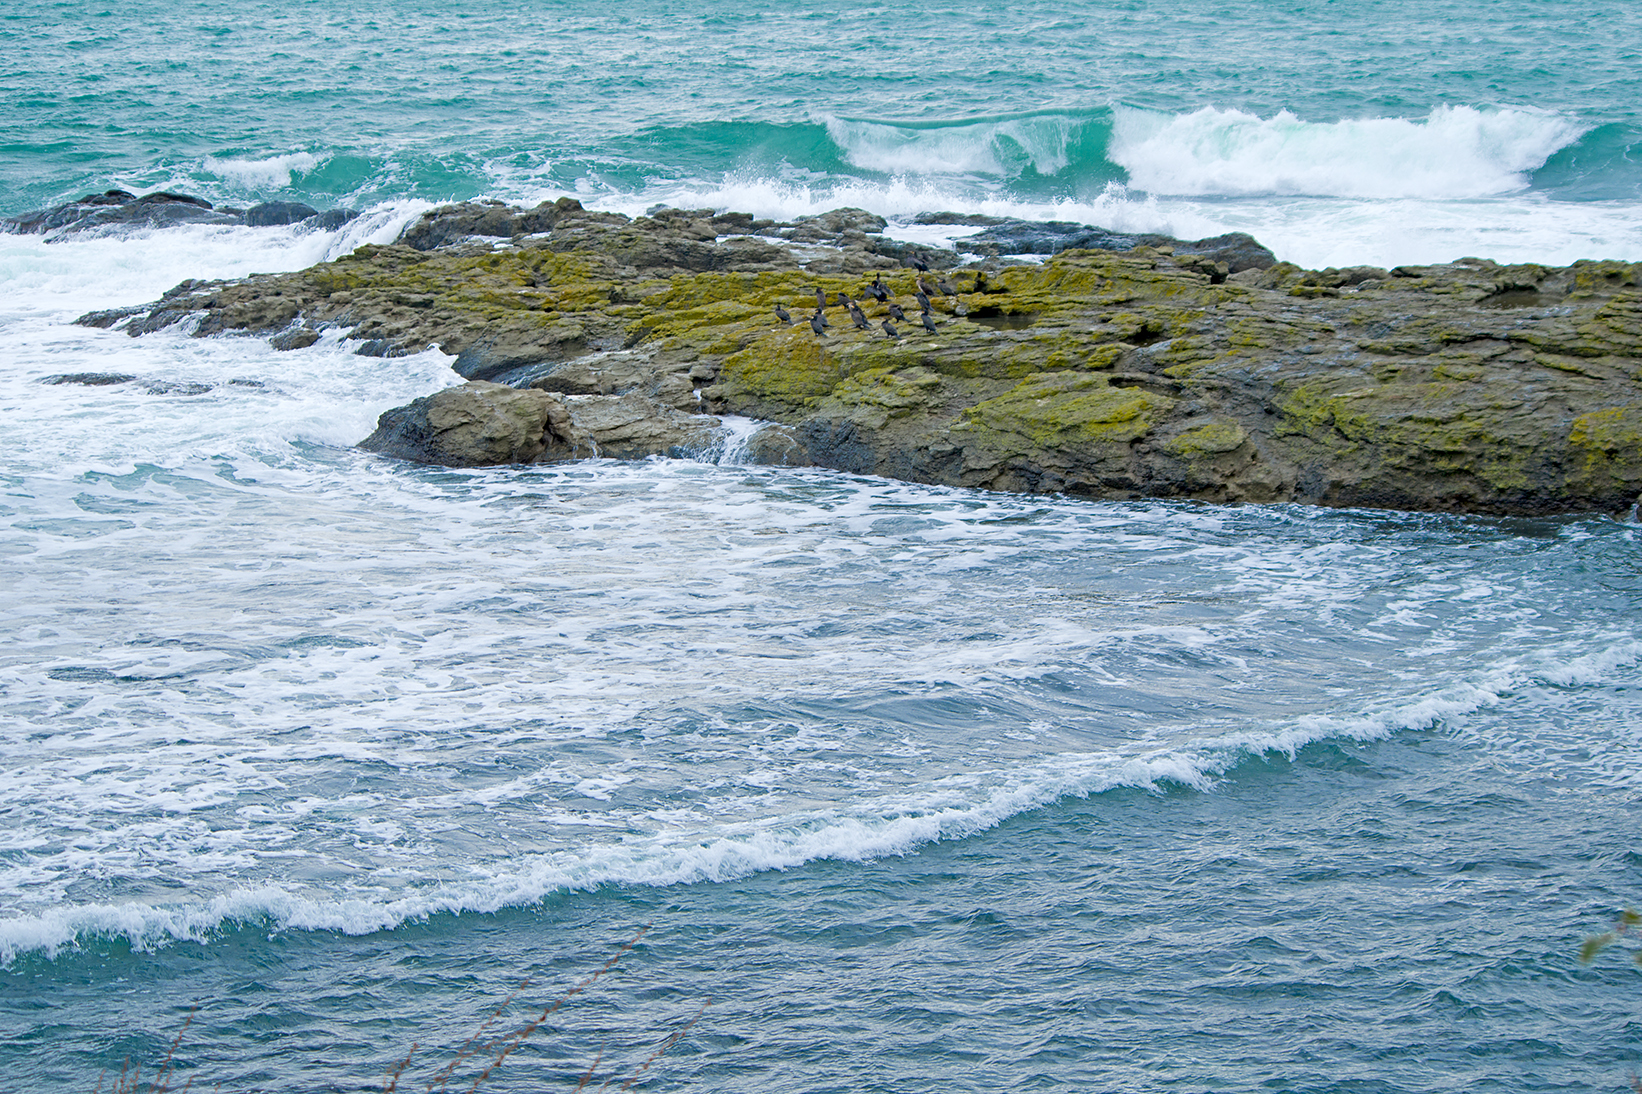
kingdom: Animalia
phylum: Chordata
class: Aves
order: Suliformes
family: Phalacrocoracidae
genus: Phalacrocorax
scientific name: Phalacrocorax carbo
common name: Great cormorant
